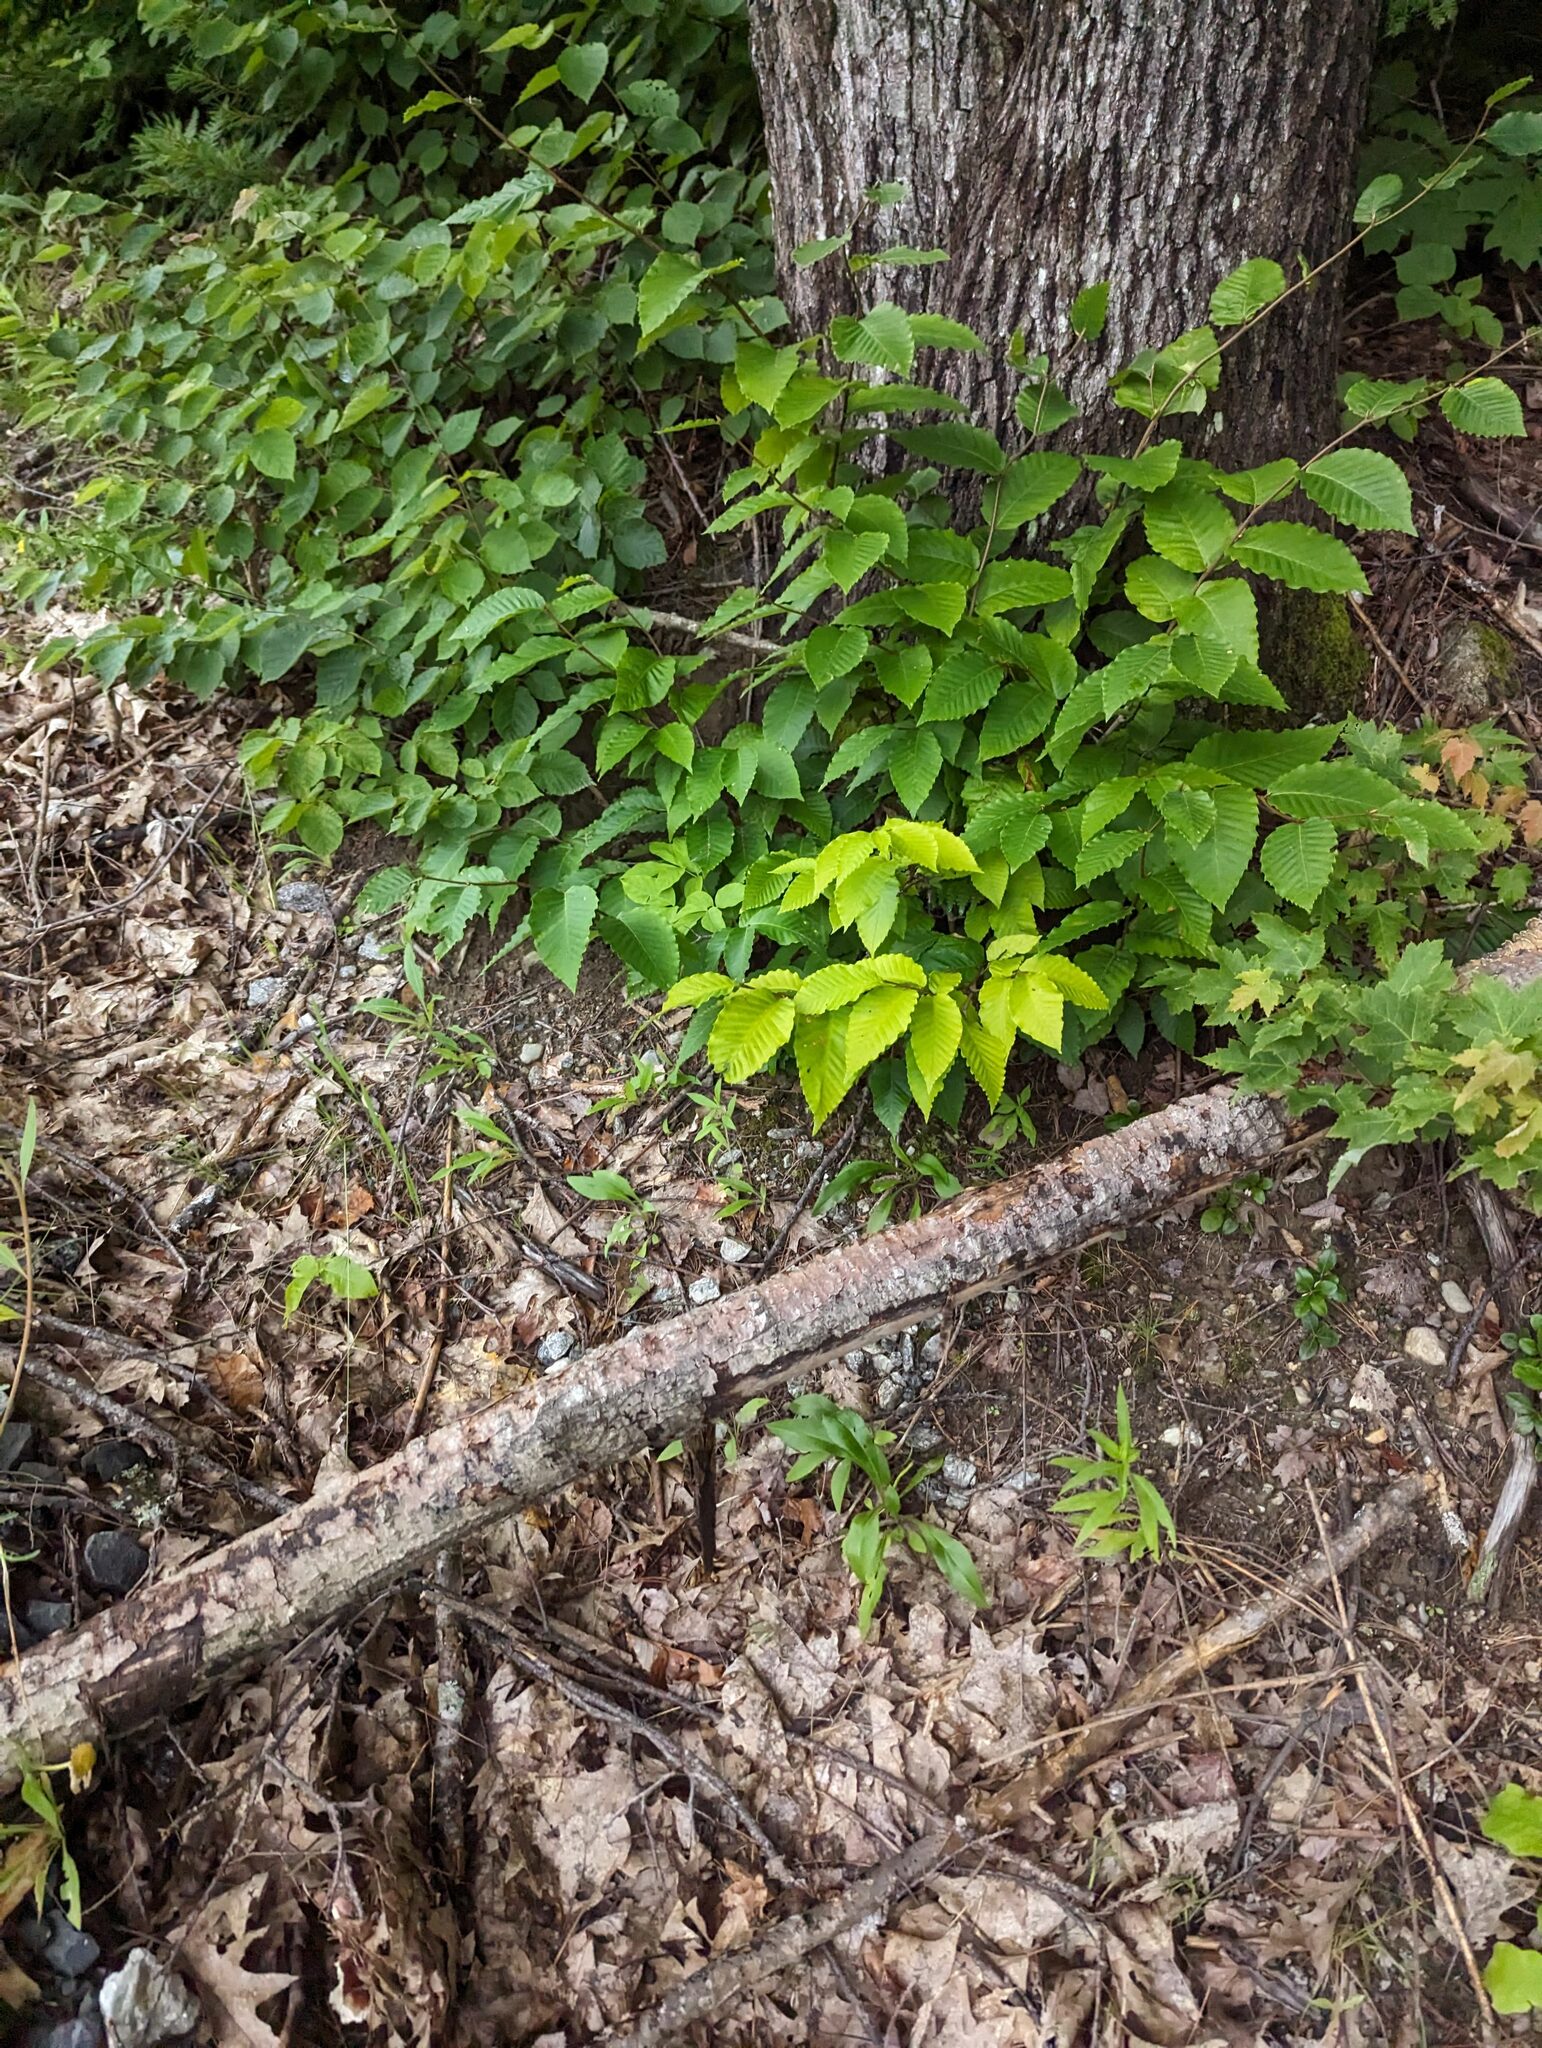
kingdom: Plantae
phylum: Tracheophyta
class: Magnoliopsida
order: Fagales
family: Fagaceae
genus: Fagus
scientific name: Fagus grandifolia
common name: American beech
